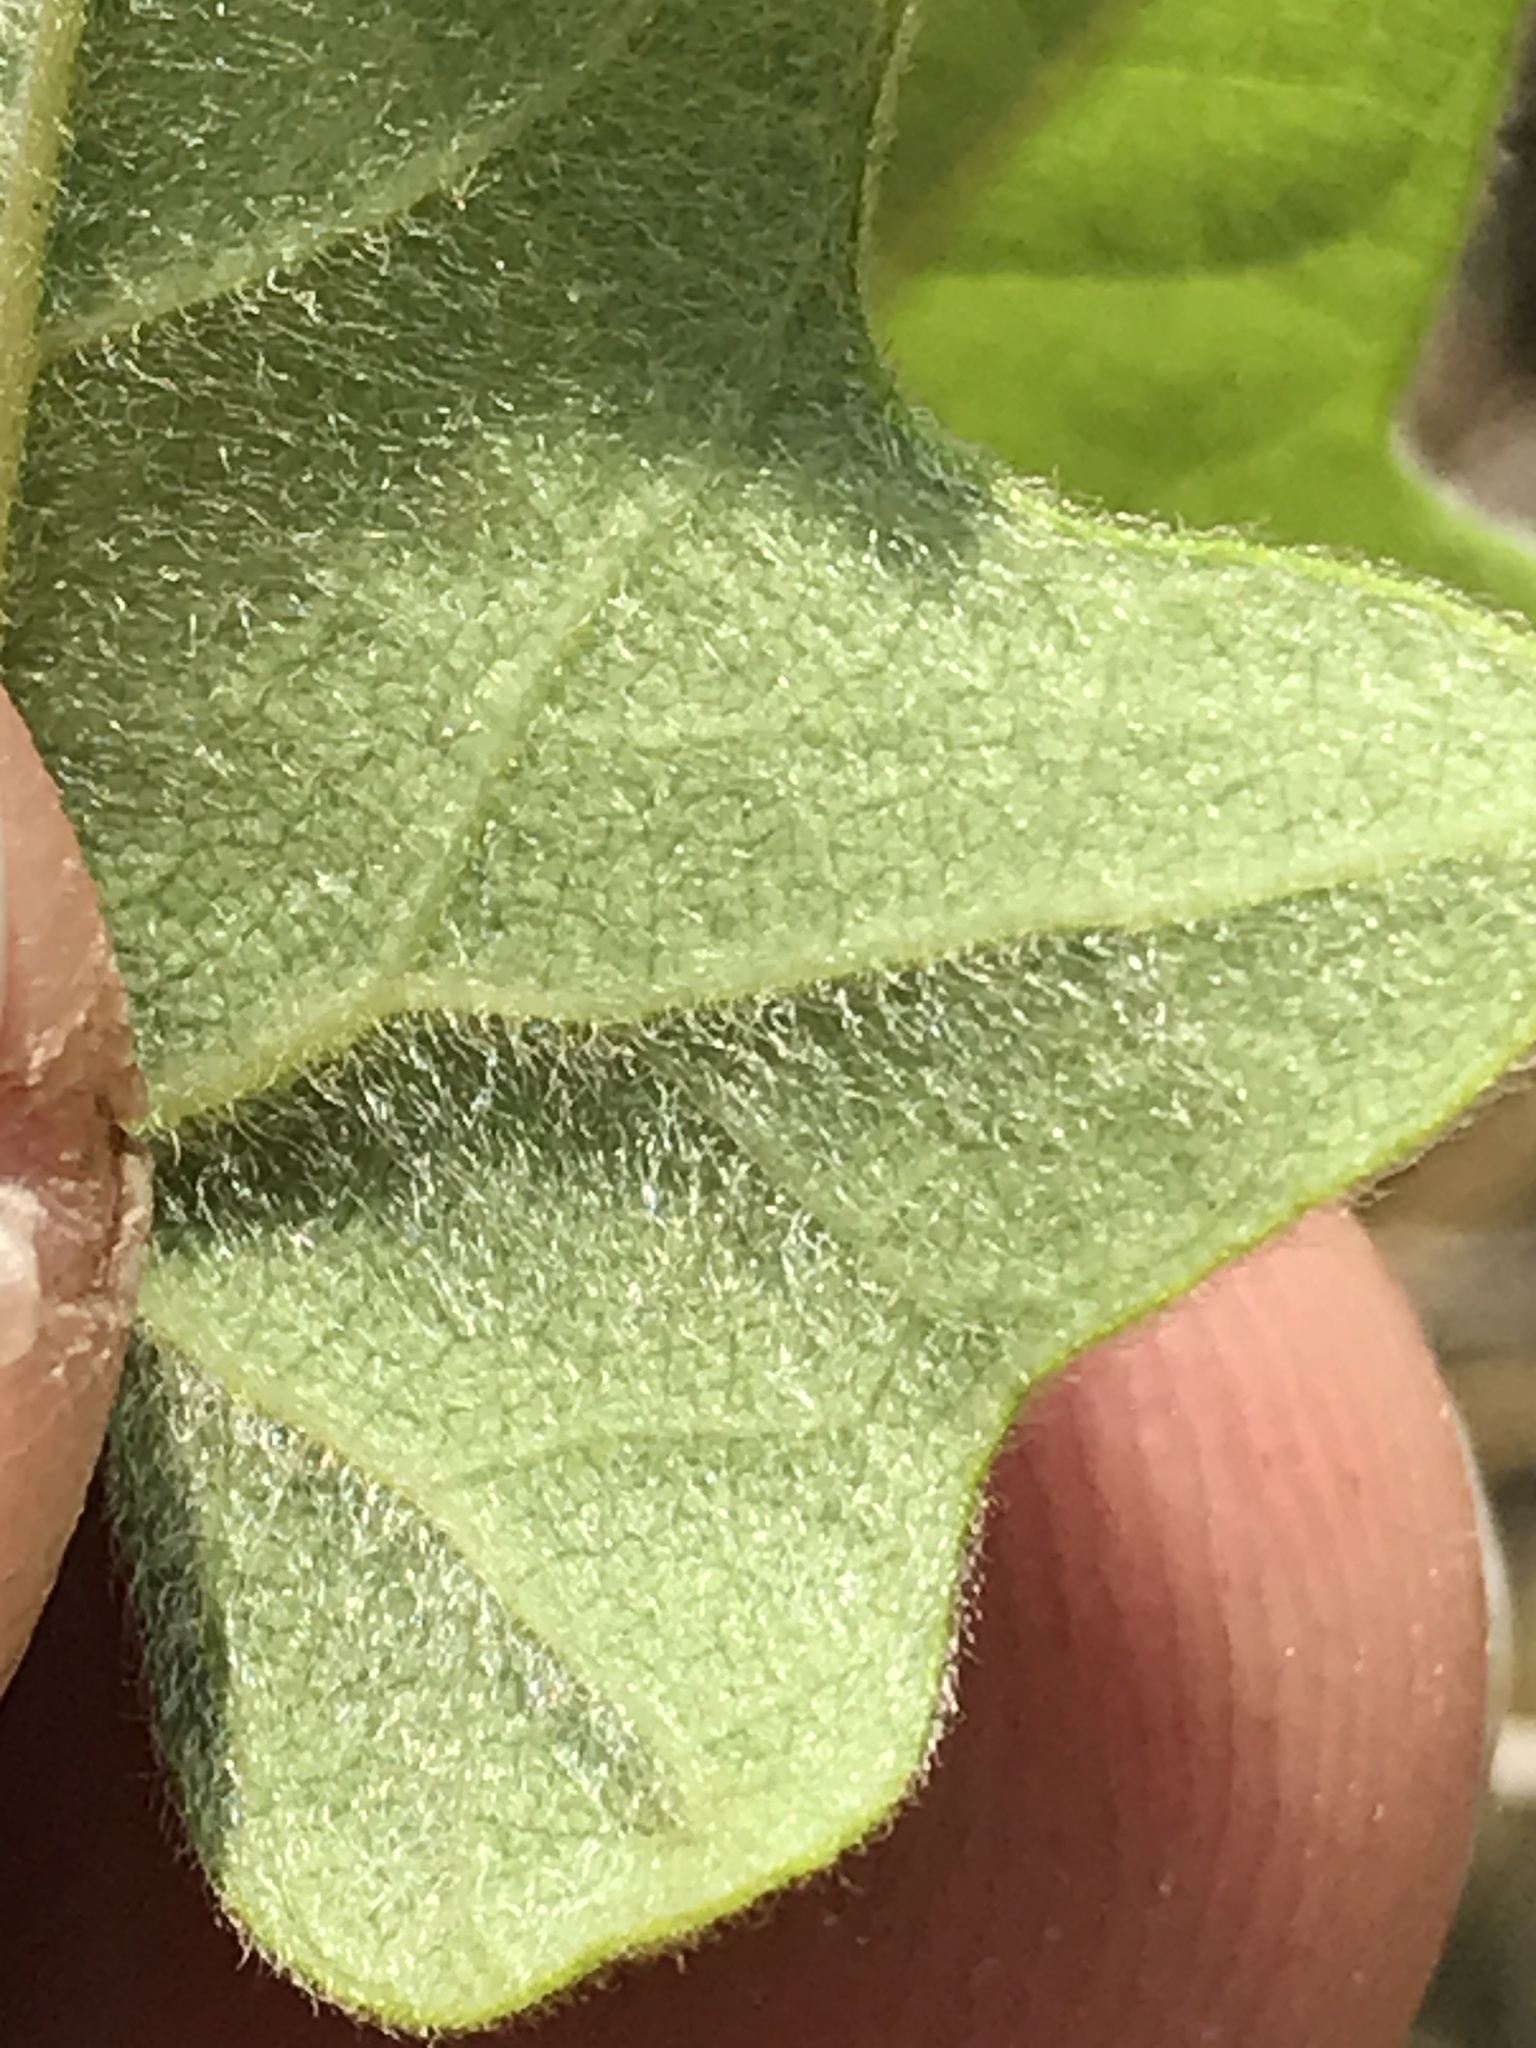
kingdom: Plantae
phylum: Tracheophyta
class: Magnoliopsida
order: Ranunculales
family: Menispermaceae
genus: Cocculus
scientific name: Cocculus carolinus
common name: Carolina moonseed
